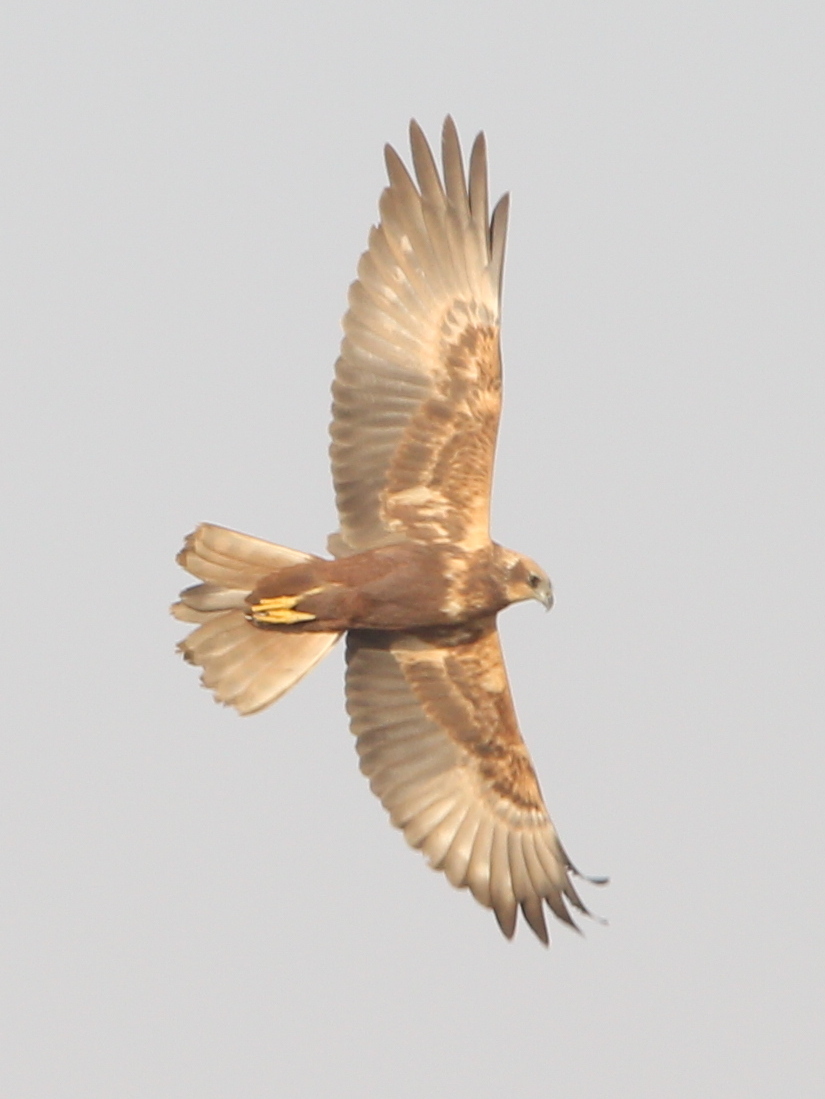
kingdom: Animalia
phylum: Chordata
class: Aves
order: Accipitriformes
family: Accipitridae
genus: Circus
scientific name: Circus aeruginosus
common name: Western marsh harrier
